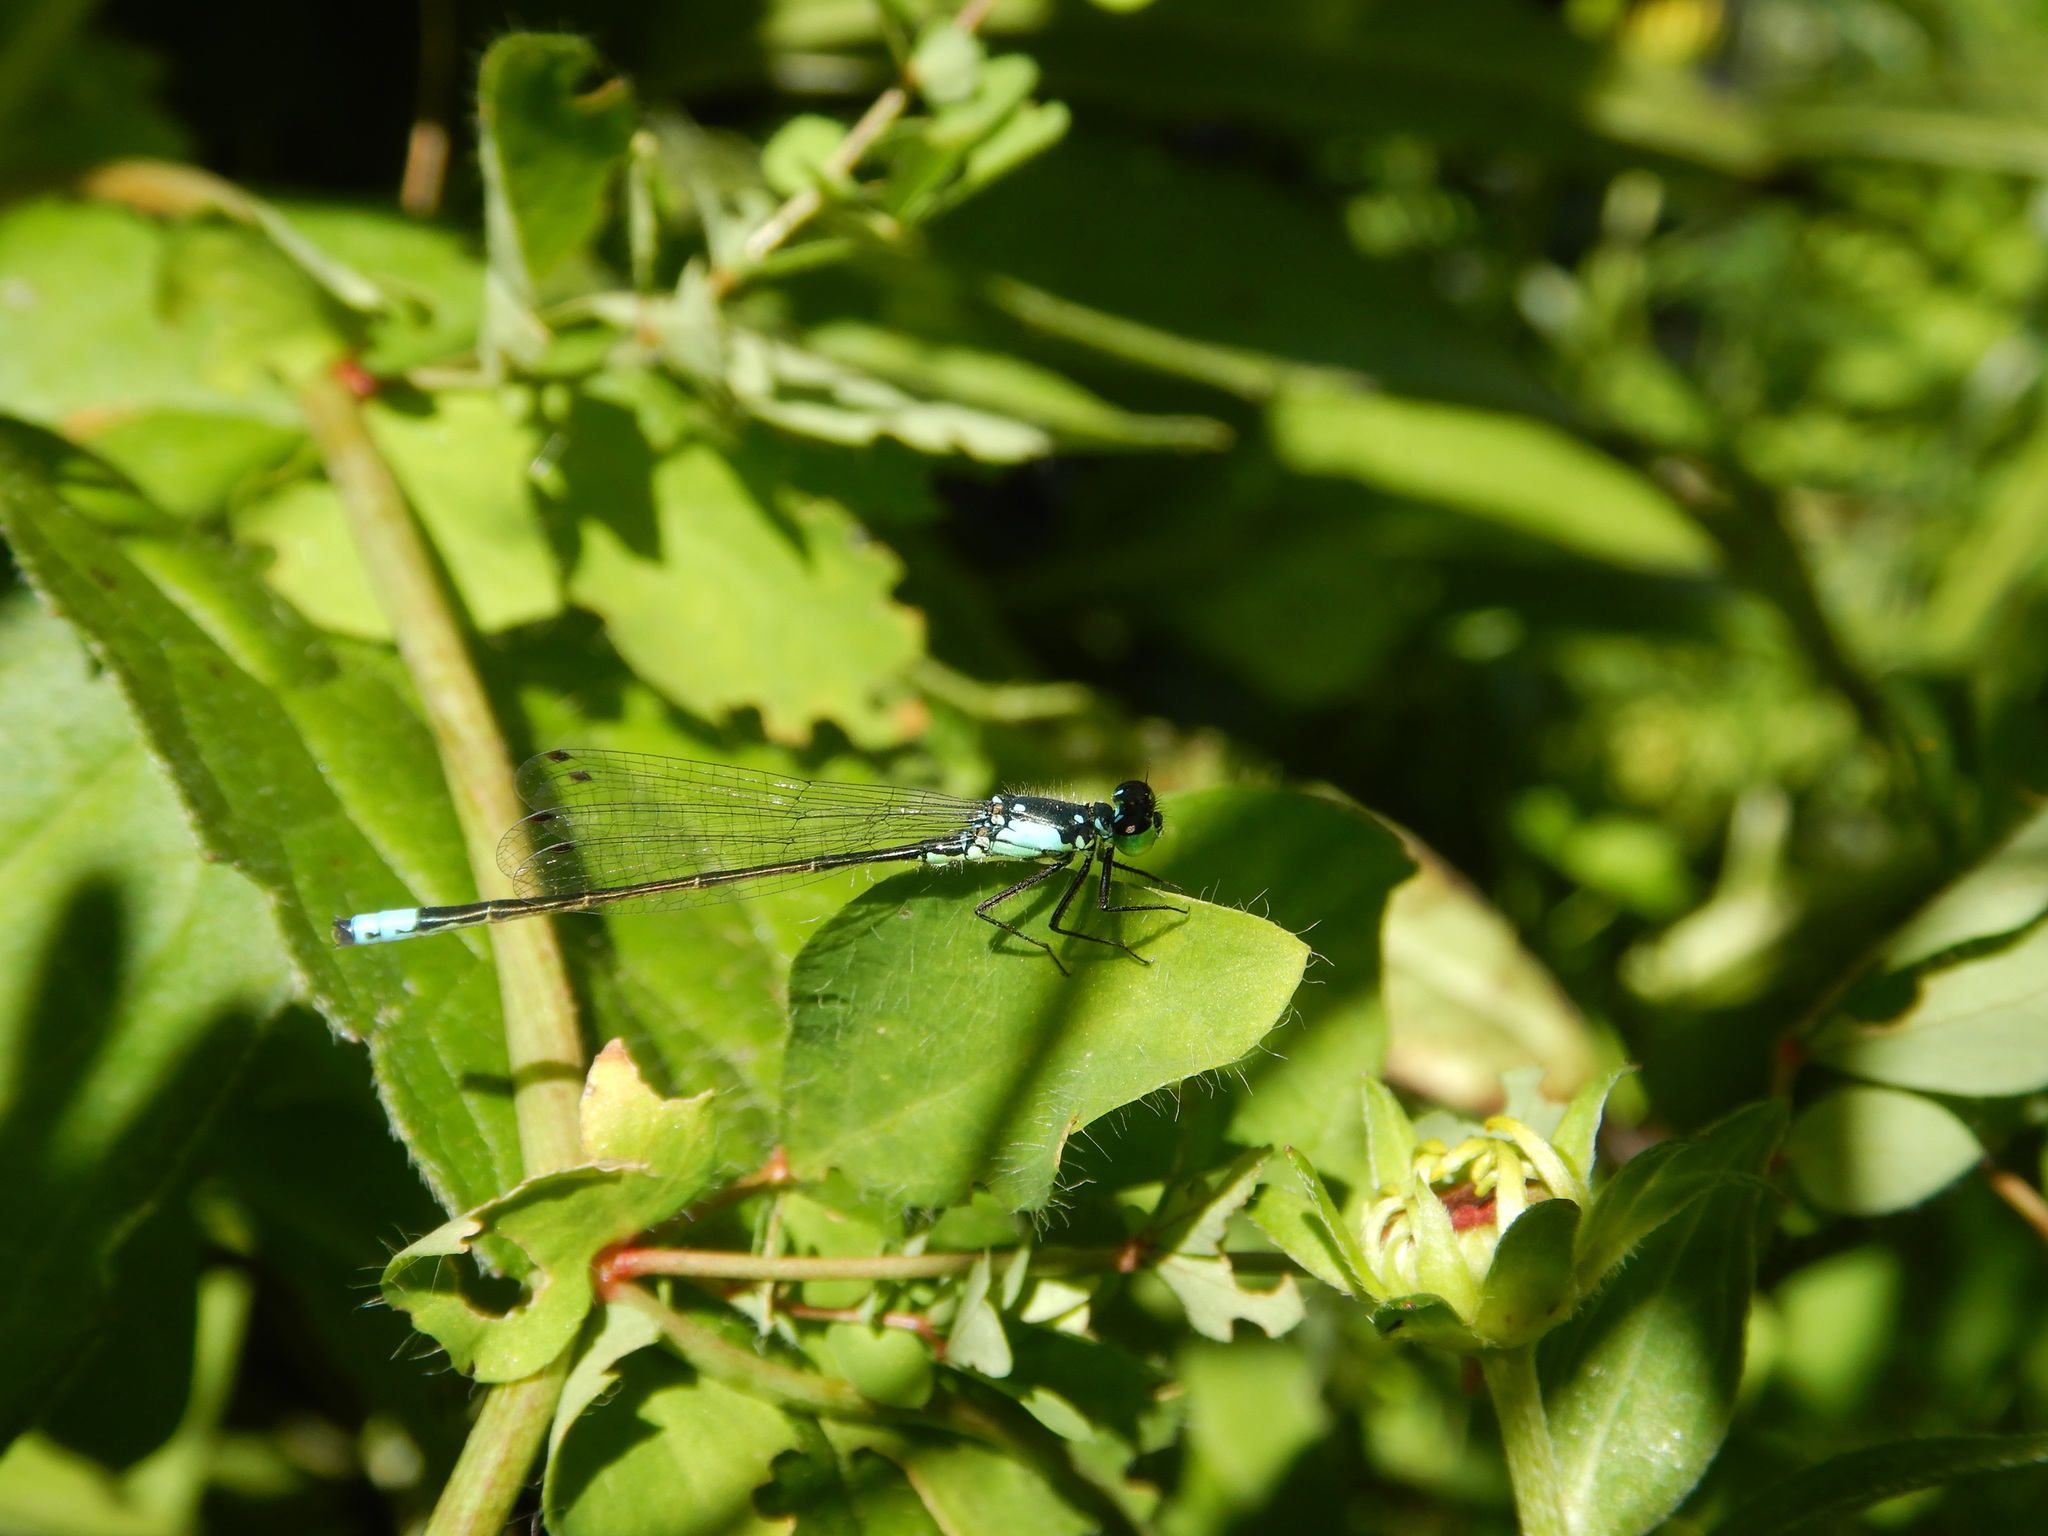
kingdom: Animalia
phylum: Arthropoda
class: Insecta
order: Odonata
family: Coenagrionidae
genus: Ischnura
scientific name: Ischnura cervula
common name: Pacific forktail
